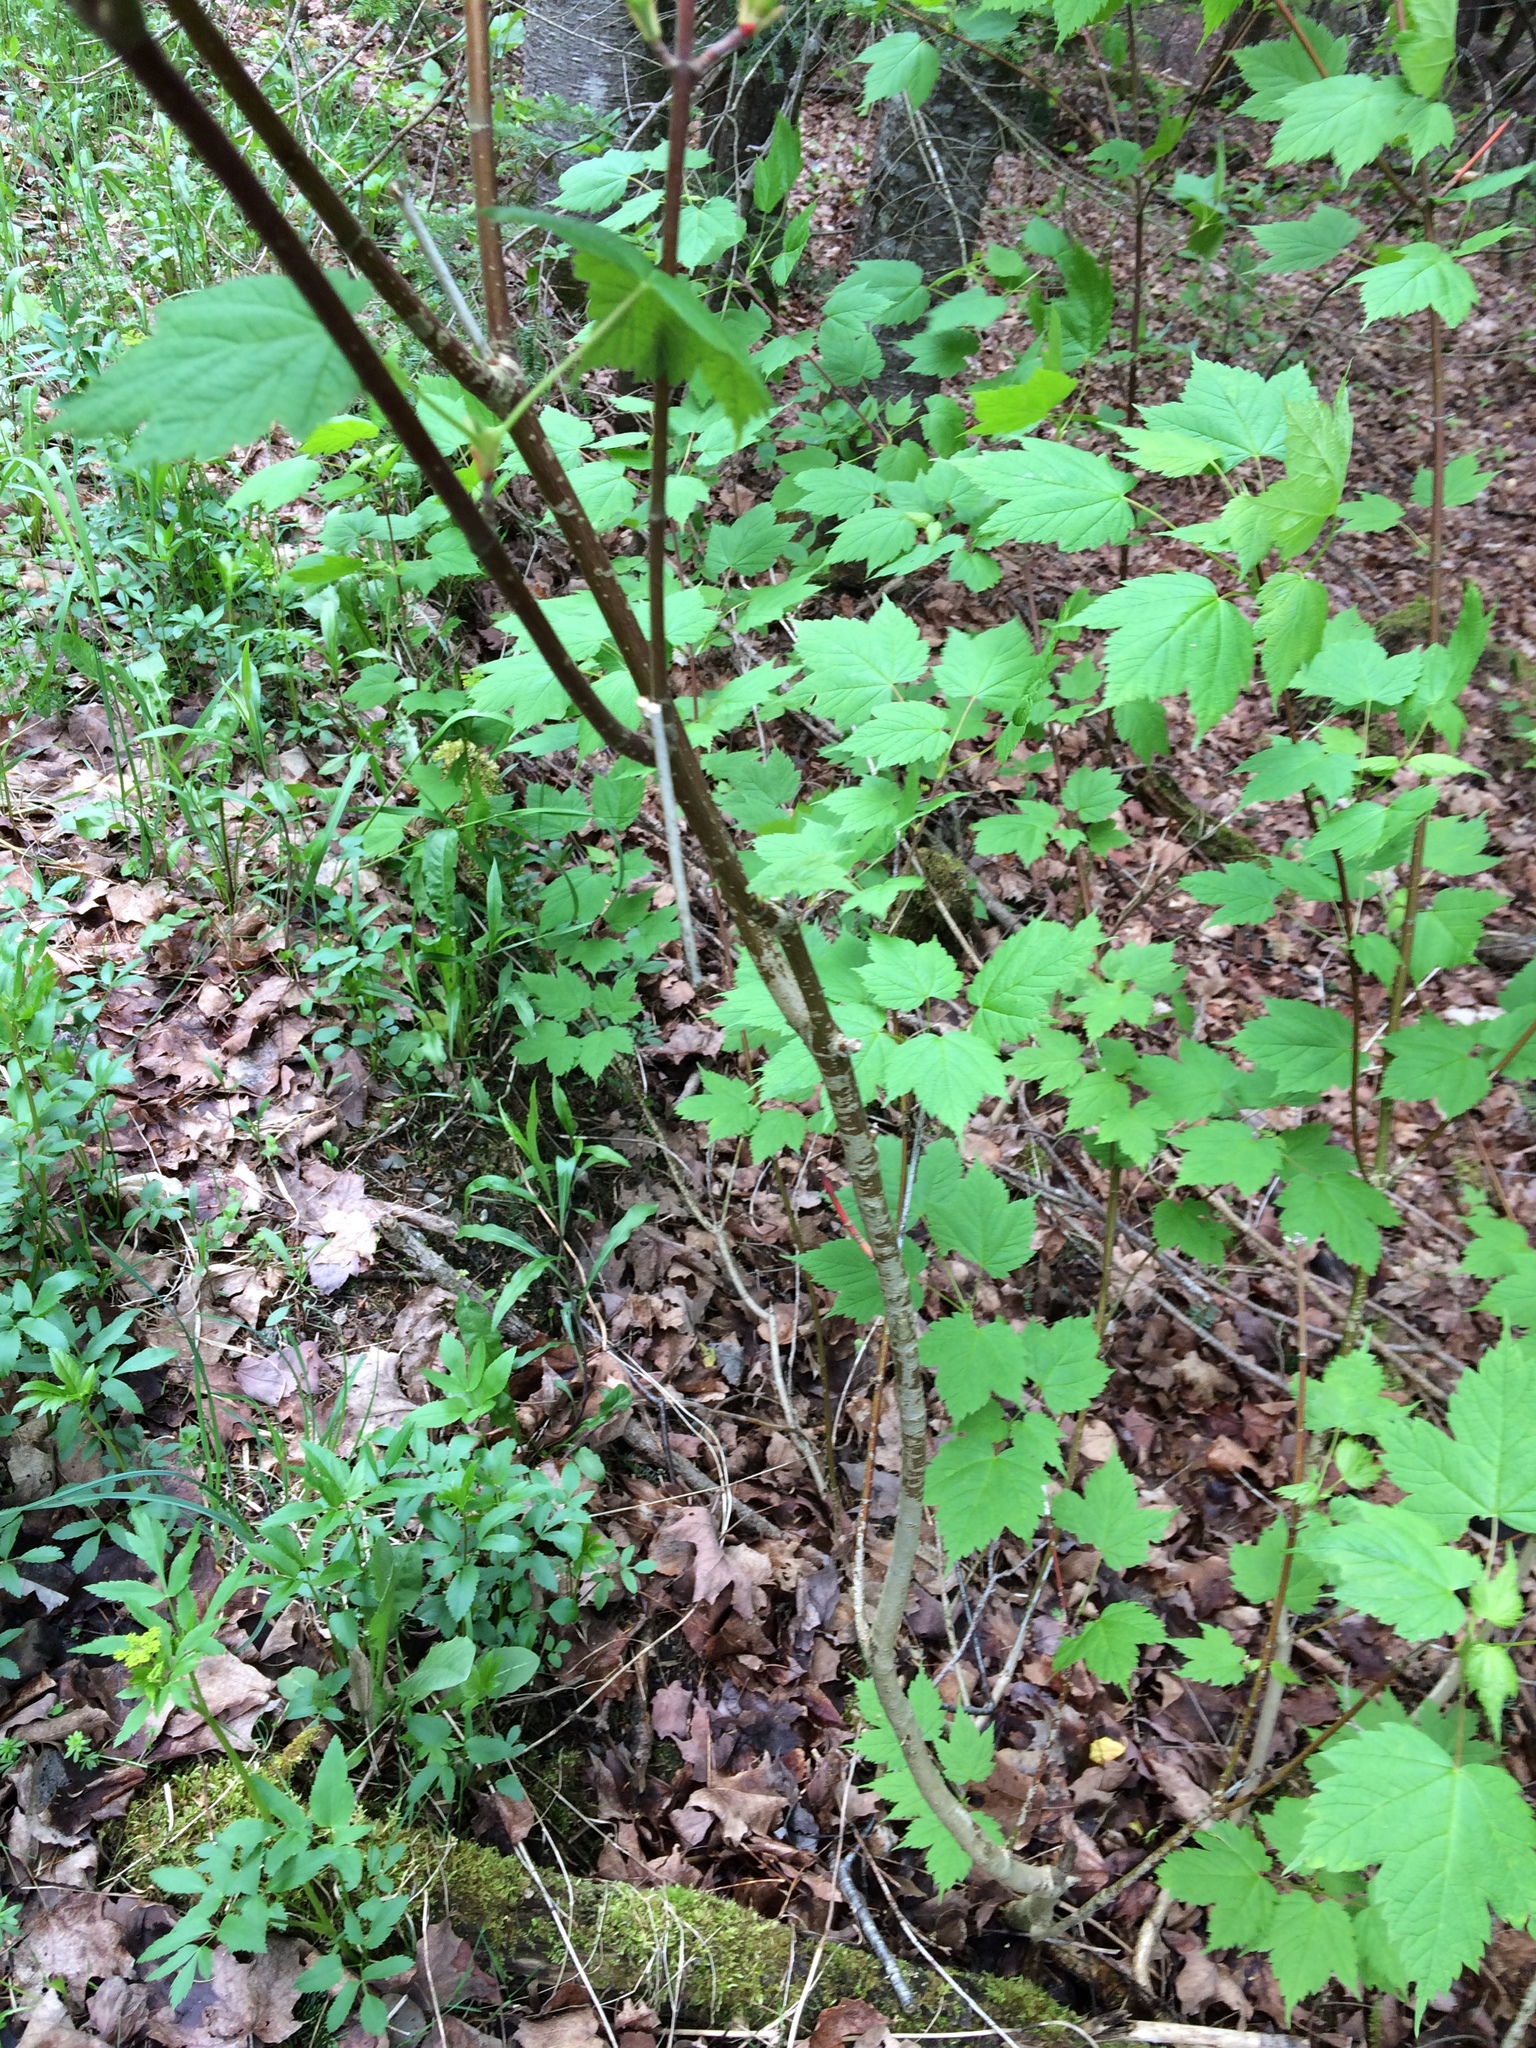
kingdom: Plantae
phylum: Tracheophyta
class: Magnoliopsida
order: Sapindales
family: Sapindaceae
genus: Acer
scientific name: Acer spicatum
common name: Mountain maple
